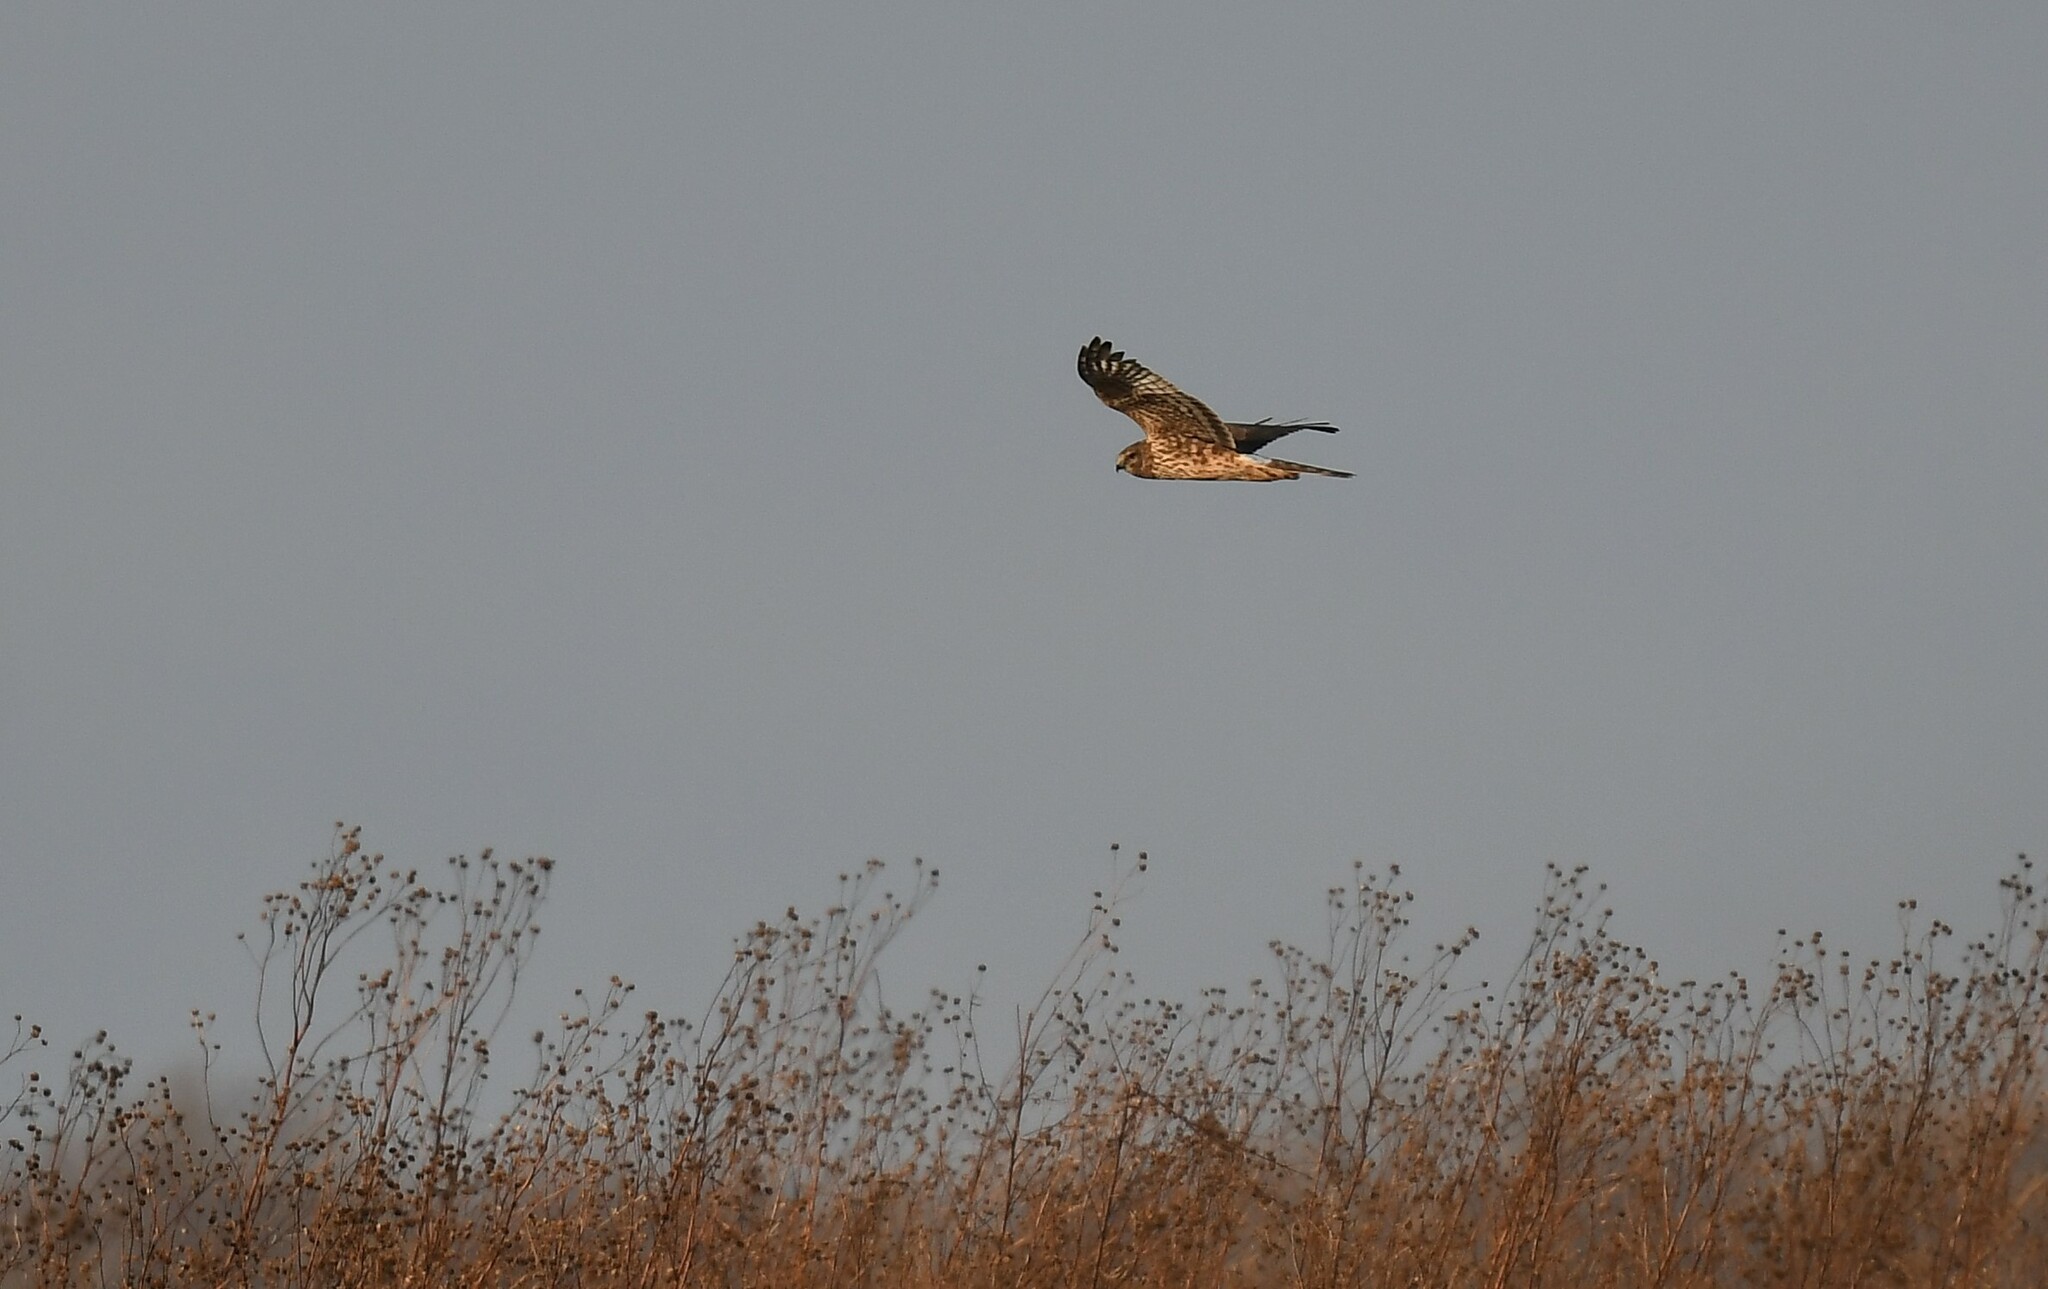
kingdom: Animalia
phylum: Chordata
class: Aves
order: Accipitriformes
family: Accipitridae
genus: Circus
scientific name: Circus cyaneus
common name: Hen harrier
